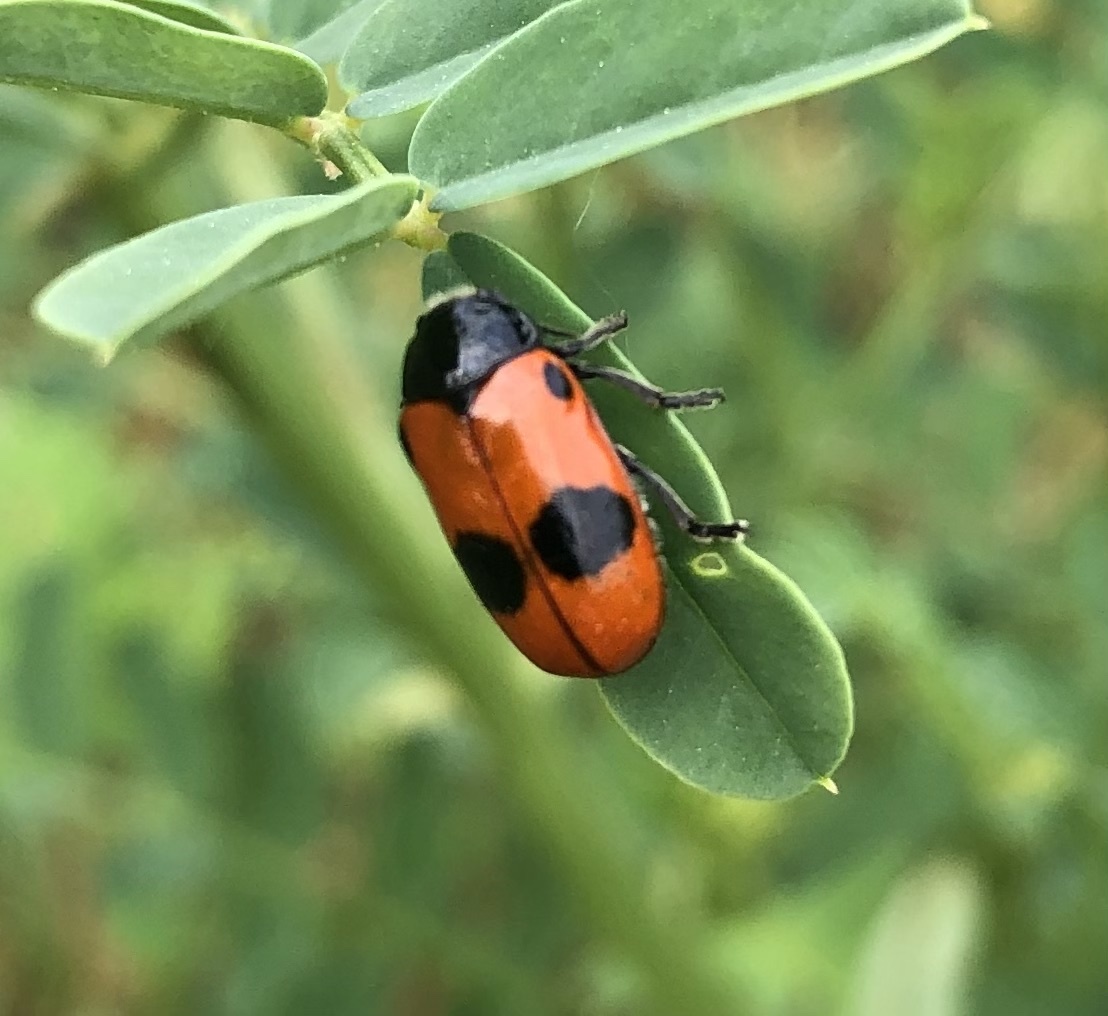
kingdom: Animalia
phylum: Arthropoda
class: Insecta
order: Coleoptera
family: Chrysomelidae
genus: Clytra
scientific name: Clytra laeviuscula
